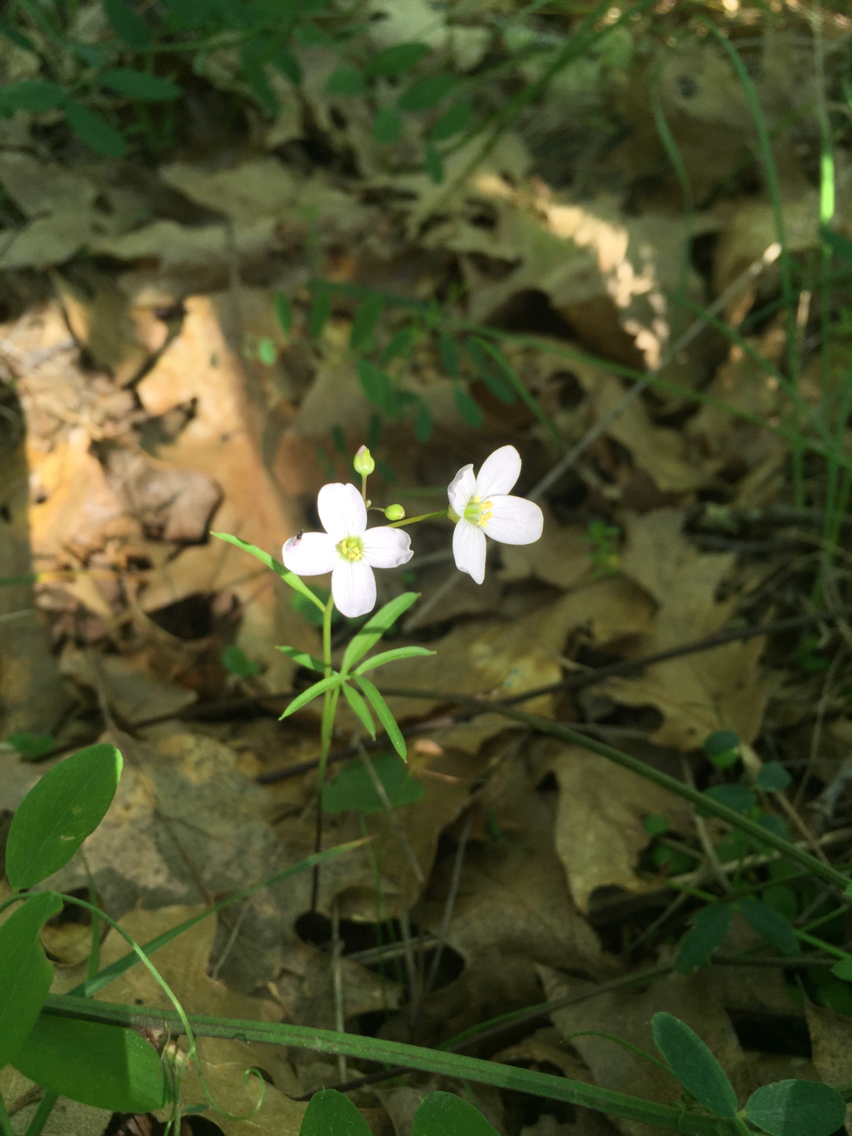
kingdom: Plantae
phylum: Tracheophyta
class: Magnoliopsida
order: Brassicales
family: Brassicaceae
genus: Cardamine
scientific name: Cardamine californica
